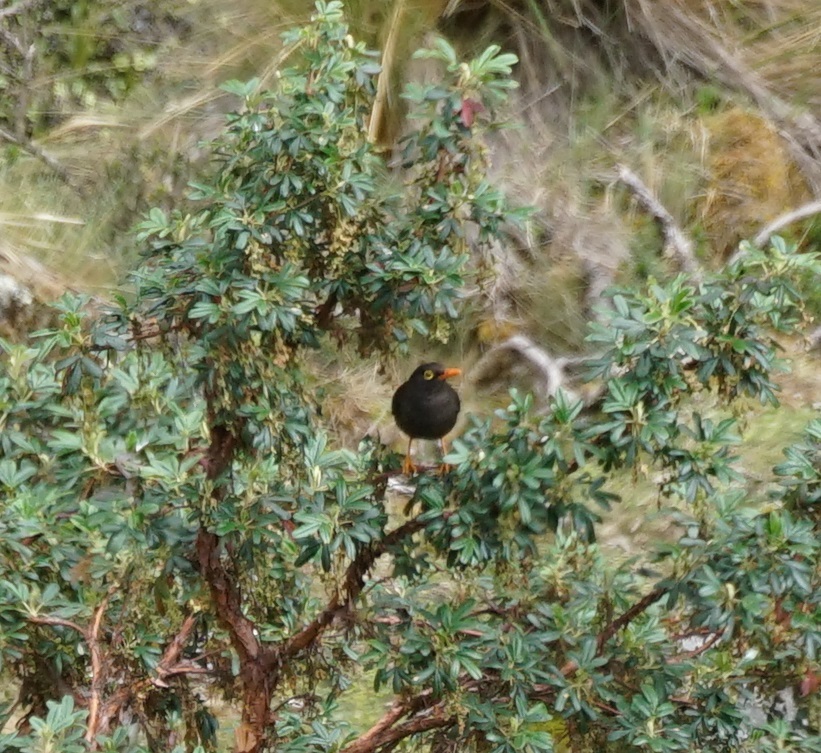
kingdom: Animalia
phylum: Chordata
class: Aves
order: Passeriformes
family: Turdidae
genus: Turdus
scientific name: Turdus fuscater
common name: Great thrush
